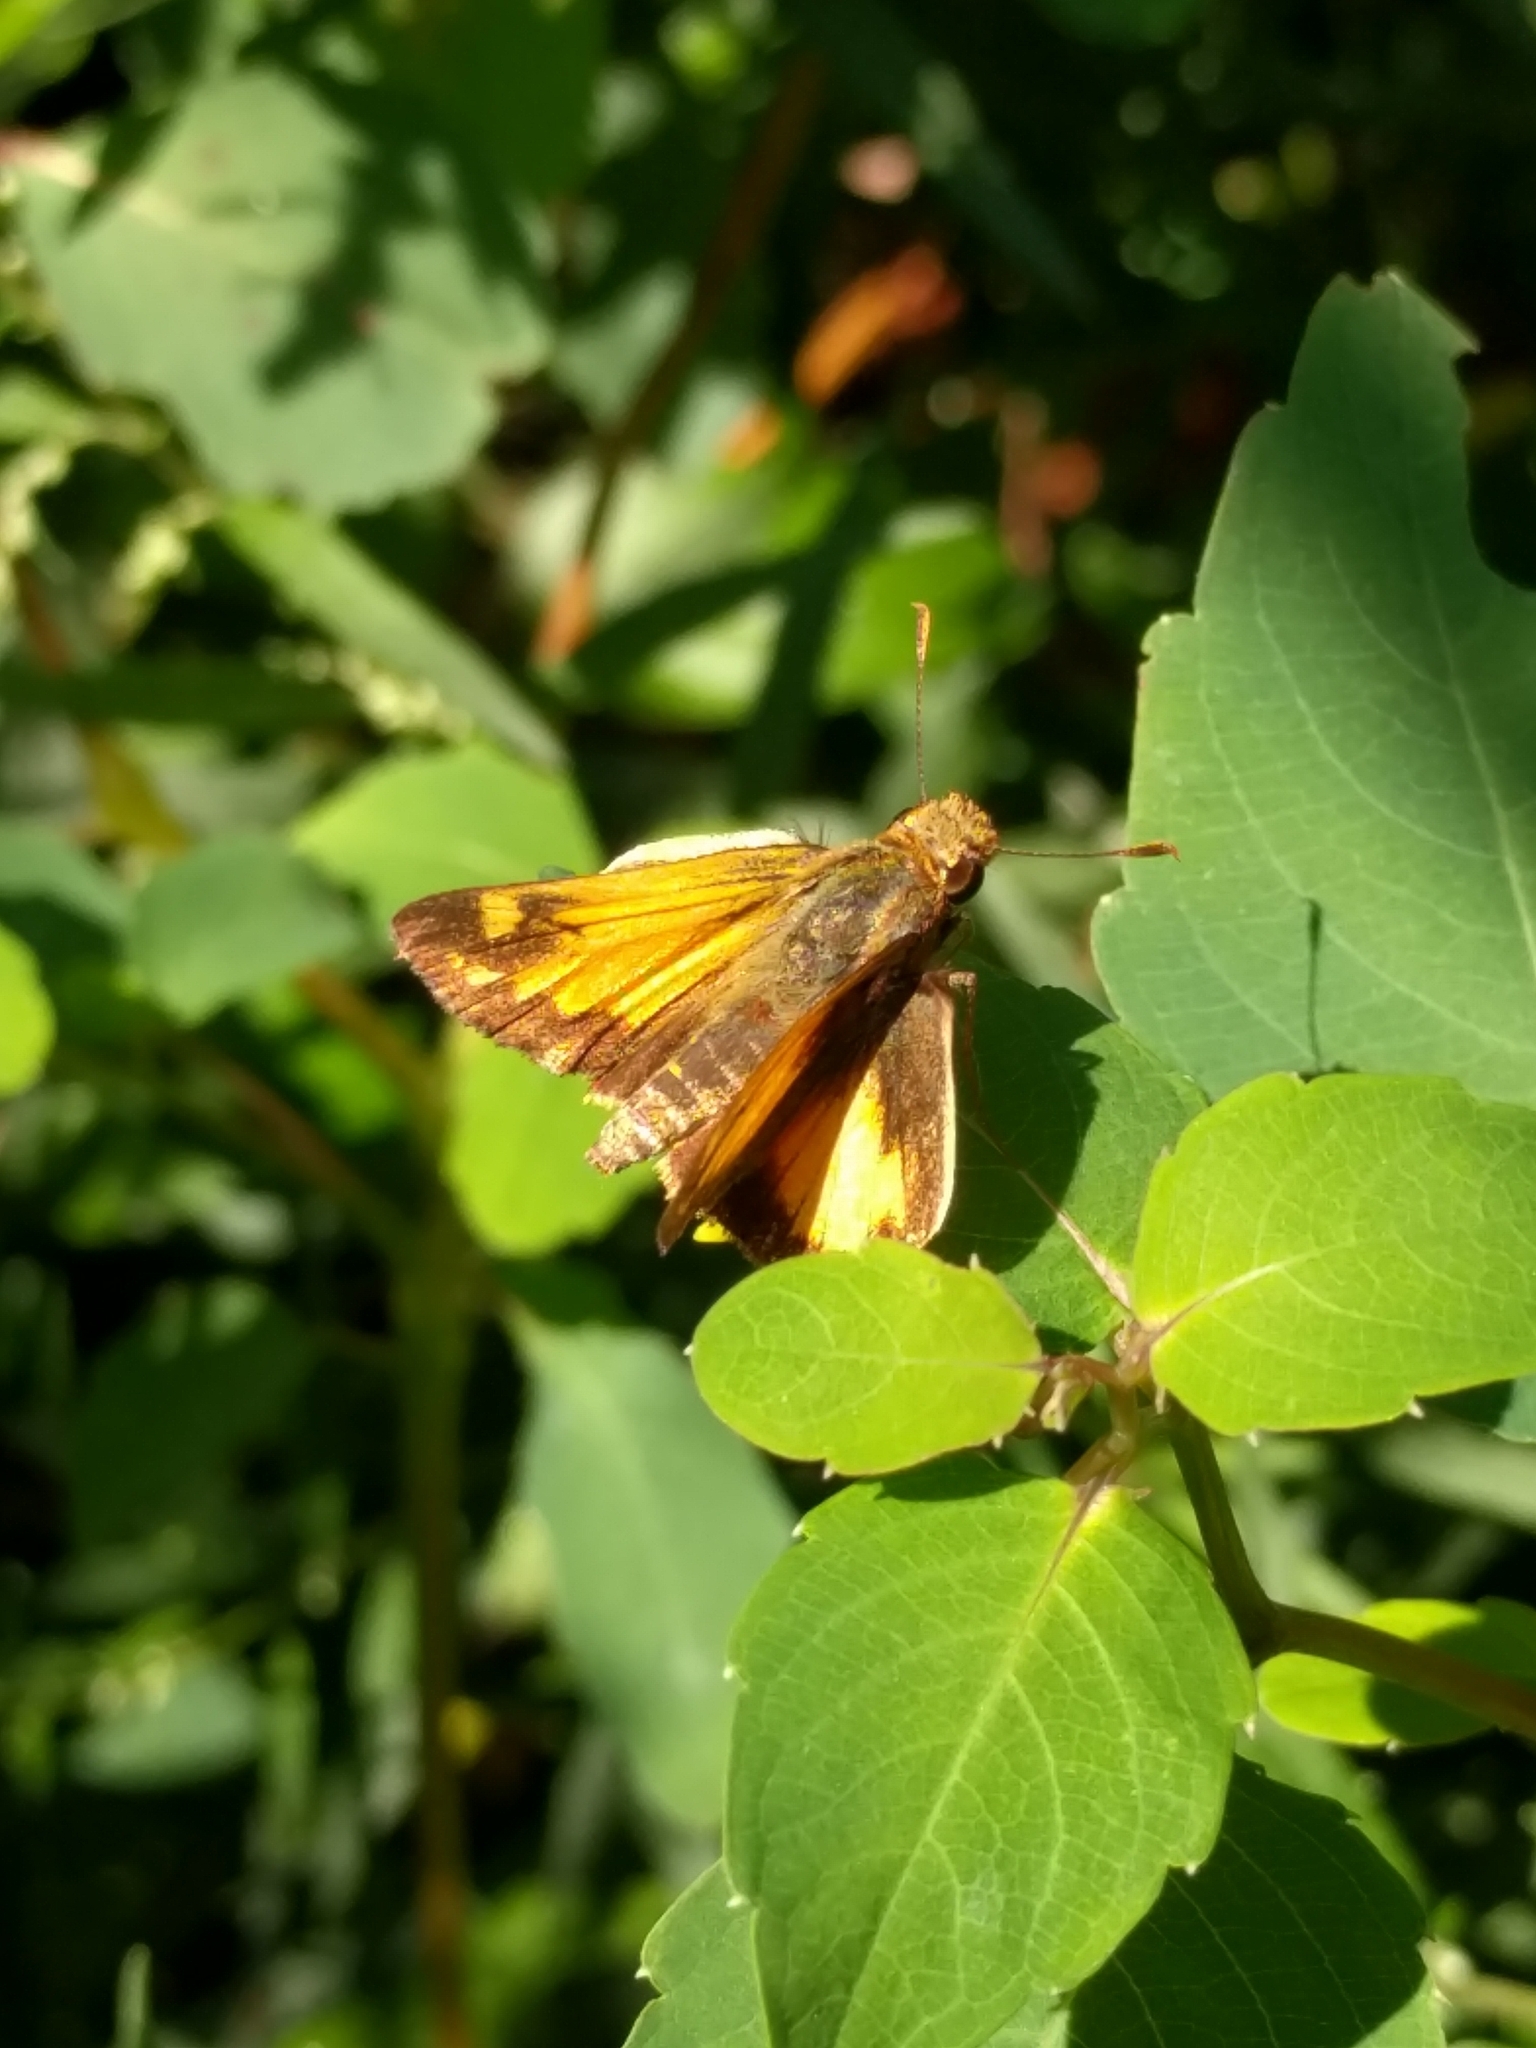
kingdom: Animalia
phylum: Arthropoda
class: Insecta
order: Lepidoptera
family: Hesperiidae
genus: Lon
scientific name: Lon zabulon
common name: Zabulon skipper
